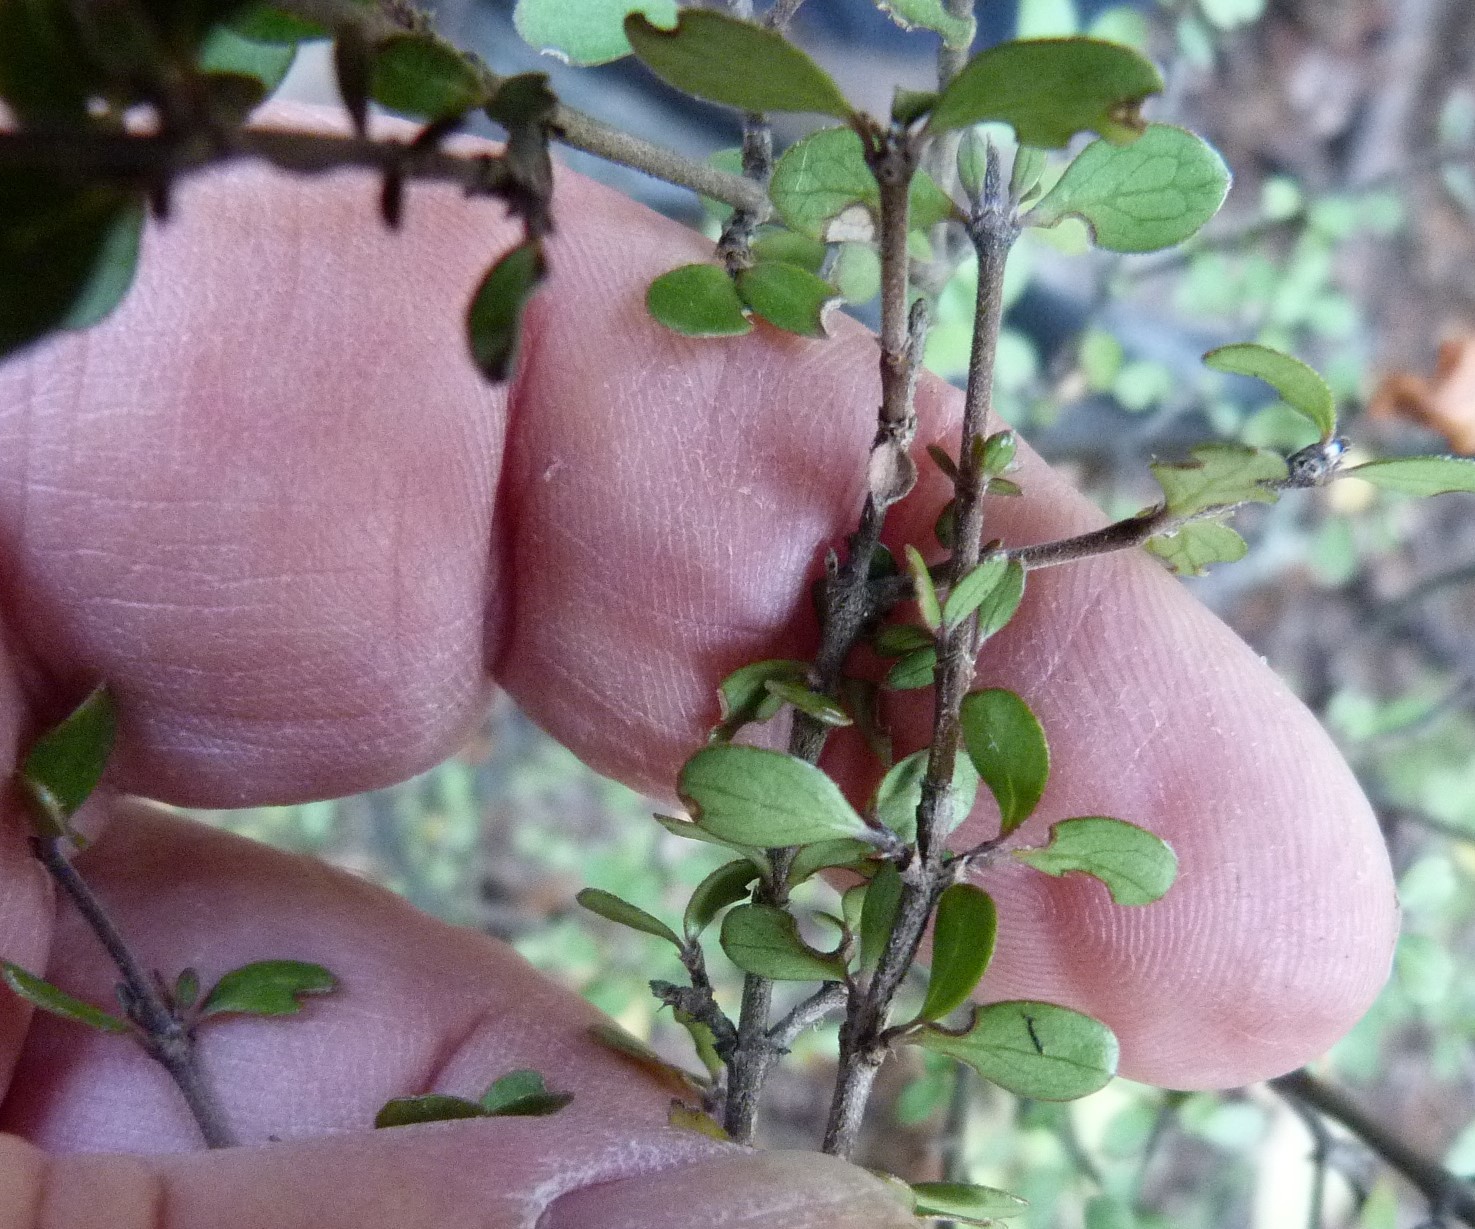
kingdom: Plantae
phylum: Tracheophyta
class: Magnoliopsida
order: Gentianales
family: Rubiaceae
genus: Coprosma
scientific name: Coprosma dumosa
